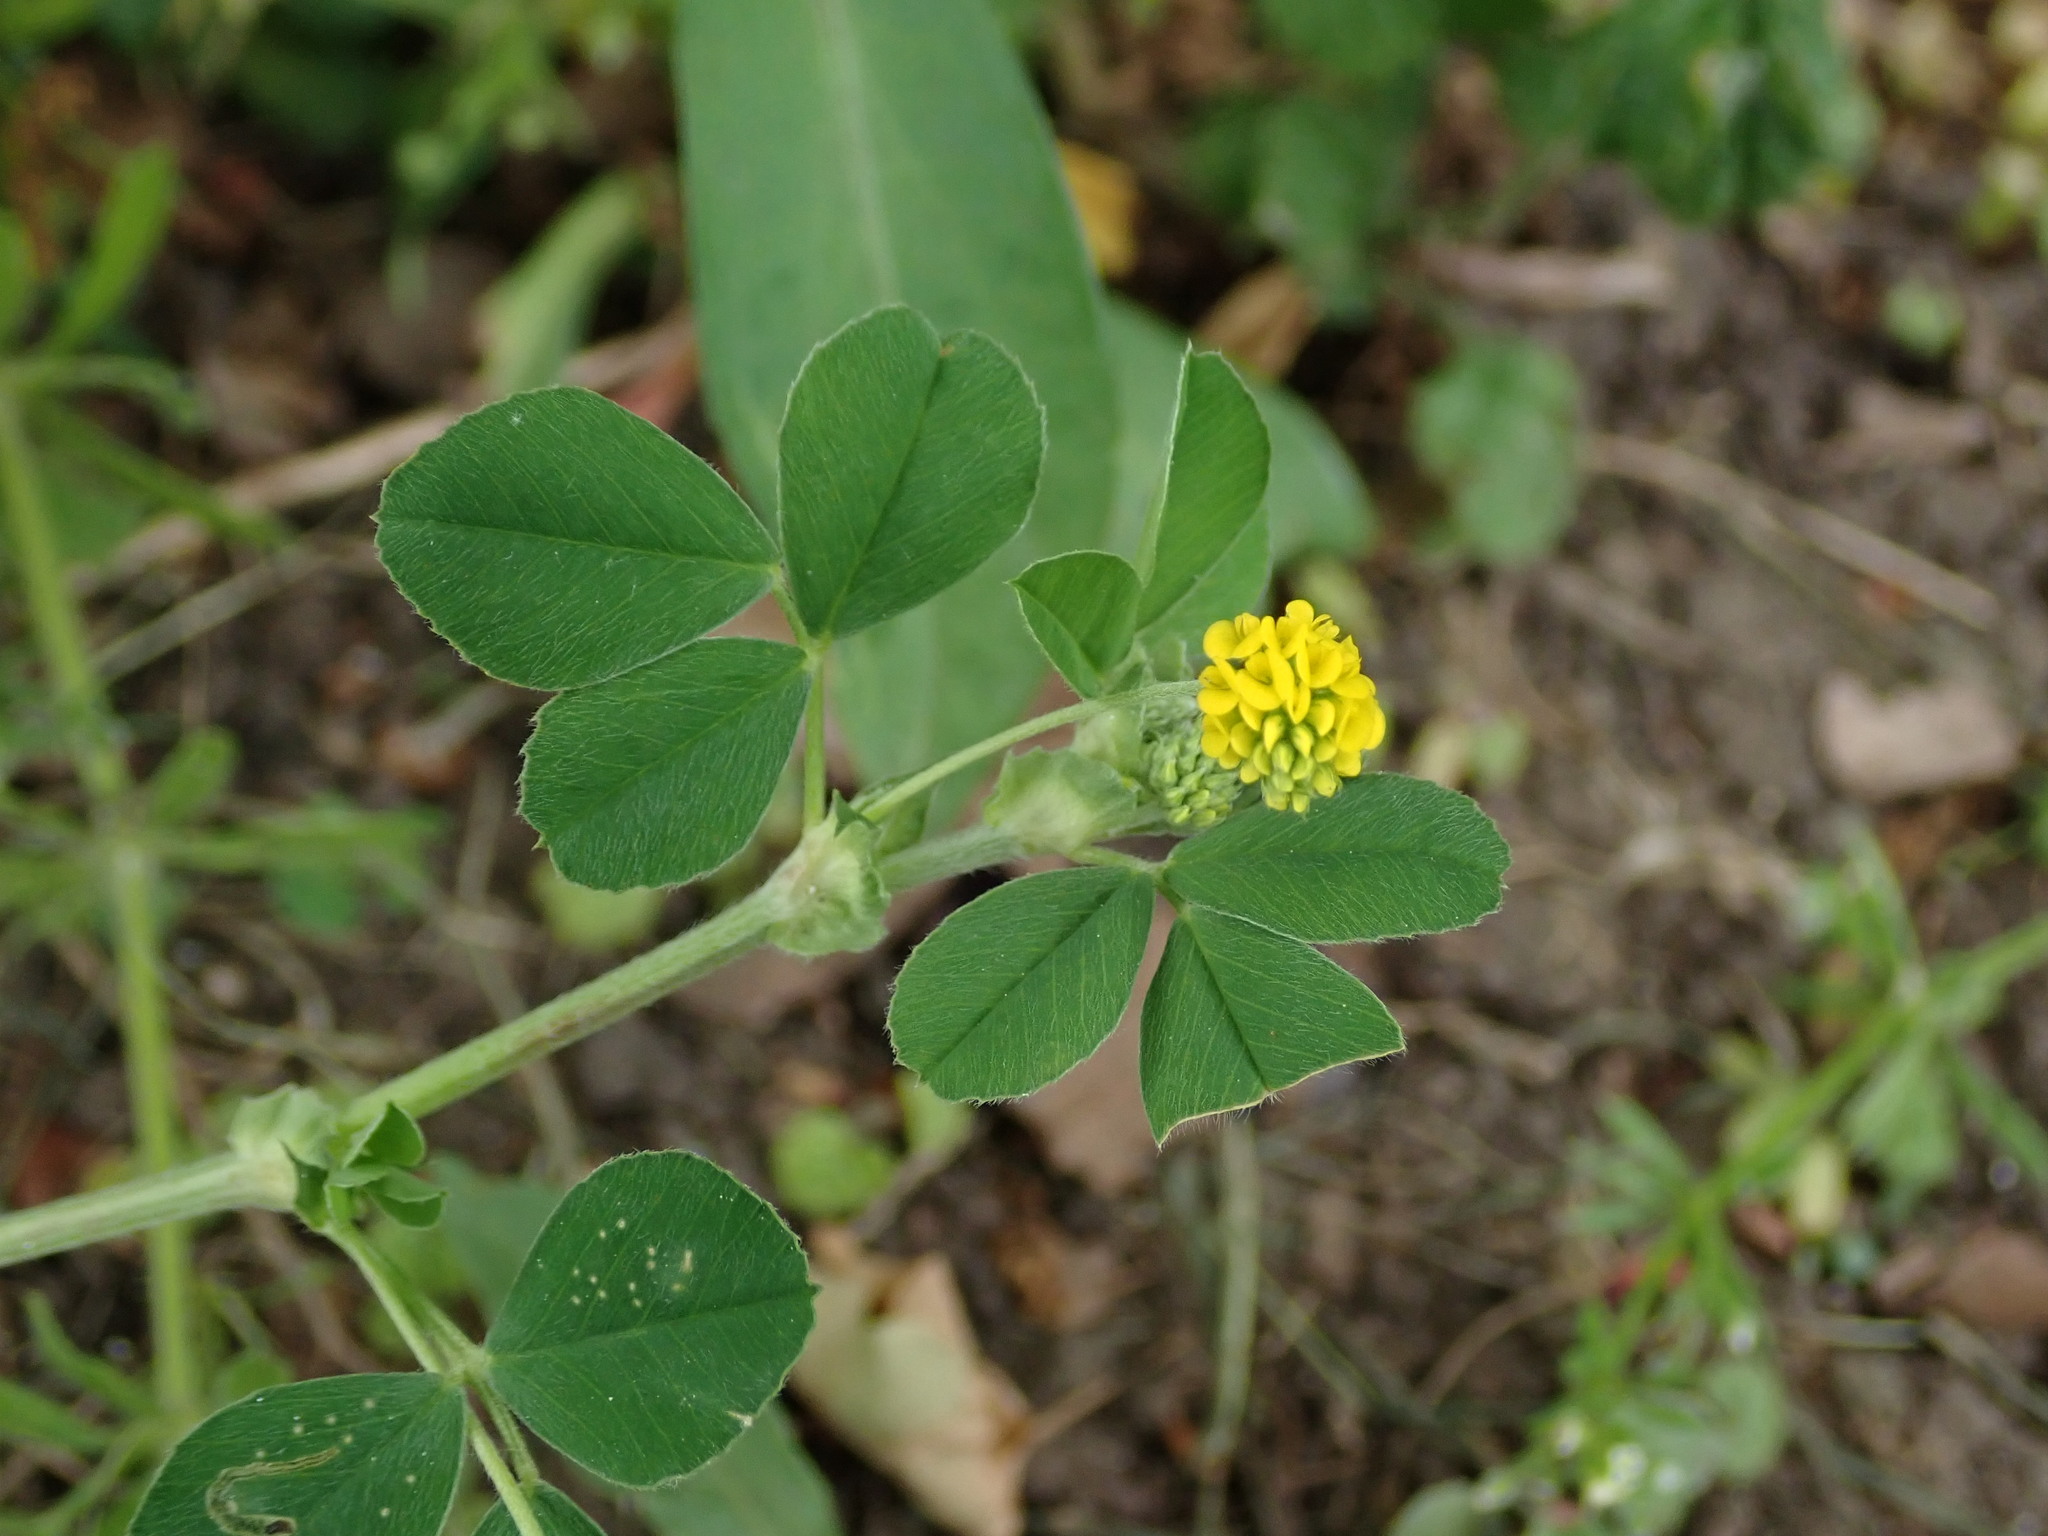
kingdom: Plantae
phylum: Tracheophyta
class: Magnoliopsida
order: Fabales
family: Fabaceae
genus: Medicago
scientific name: Medicago lupulina
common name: Black medick
